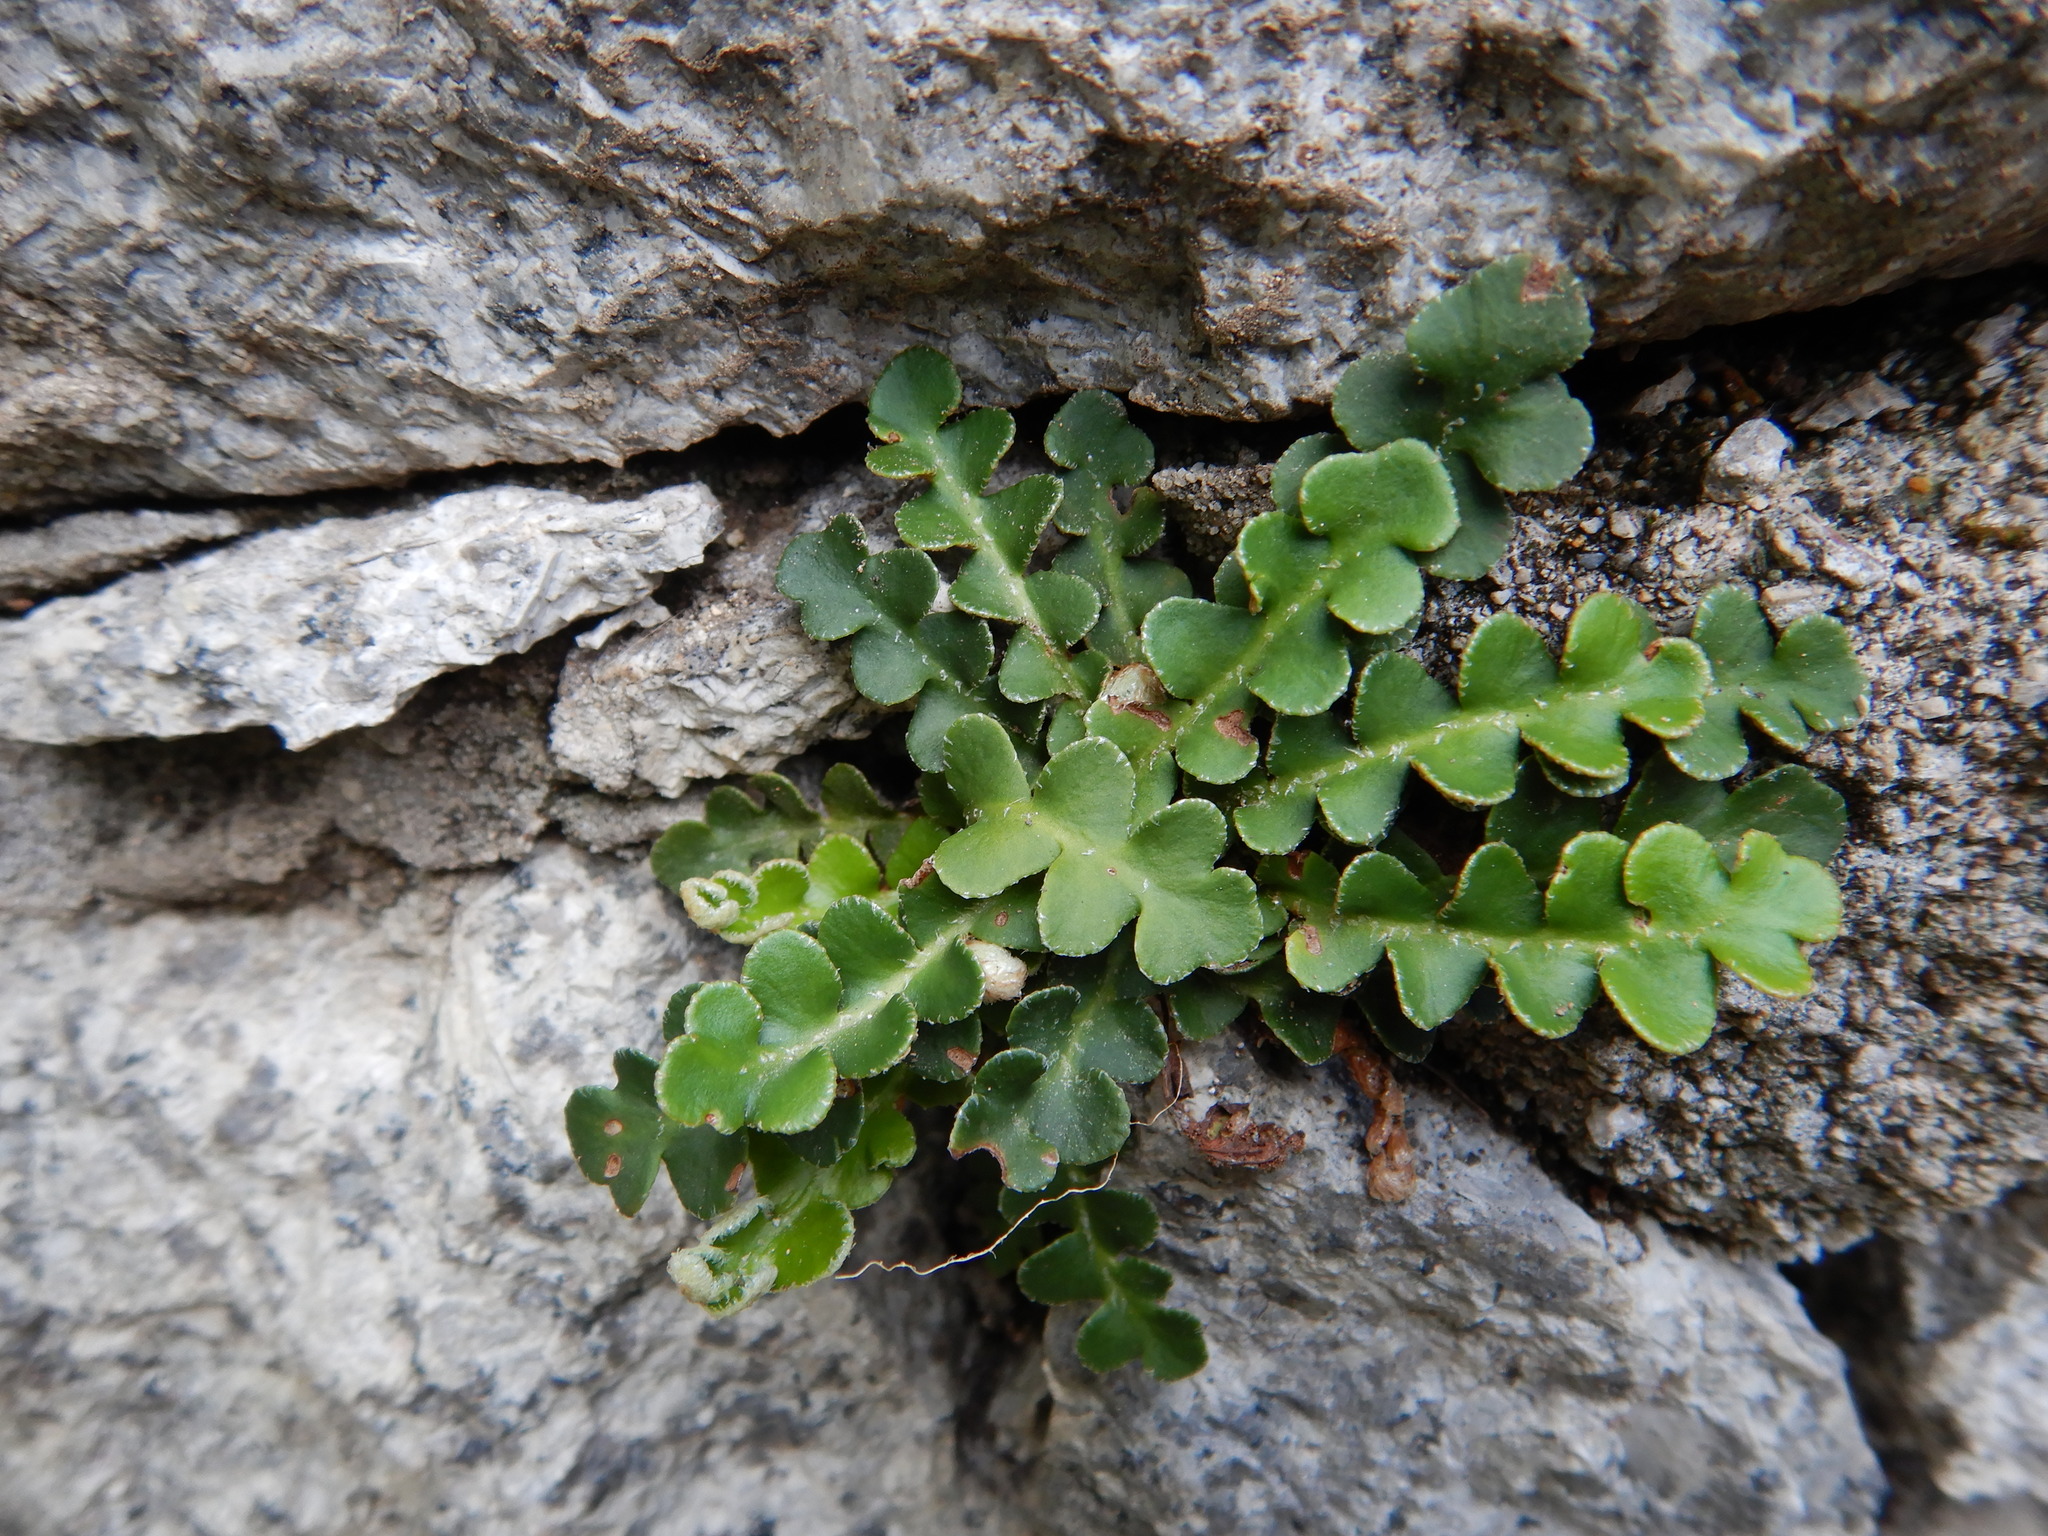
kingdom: Plantae
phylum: Tracheophyta
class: Polypodiopsida
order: Polypodiales
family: Aspleniaceae
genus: Asplenium
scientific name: Asplenium ceterach
